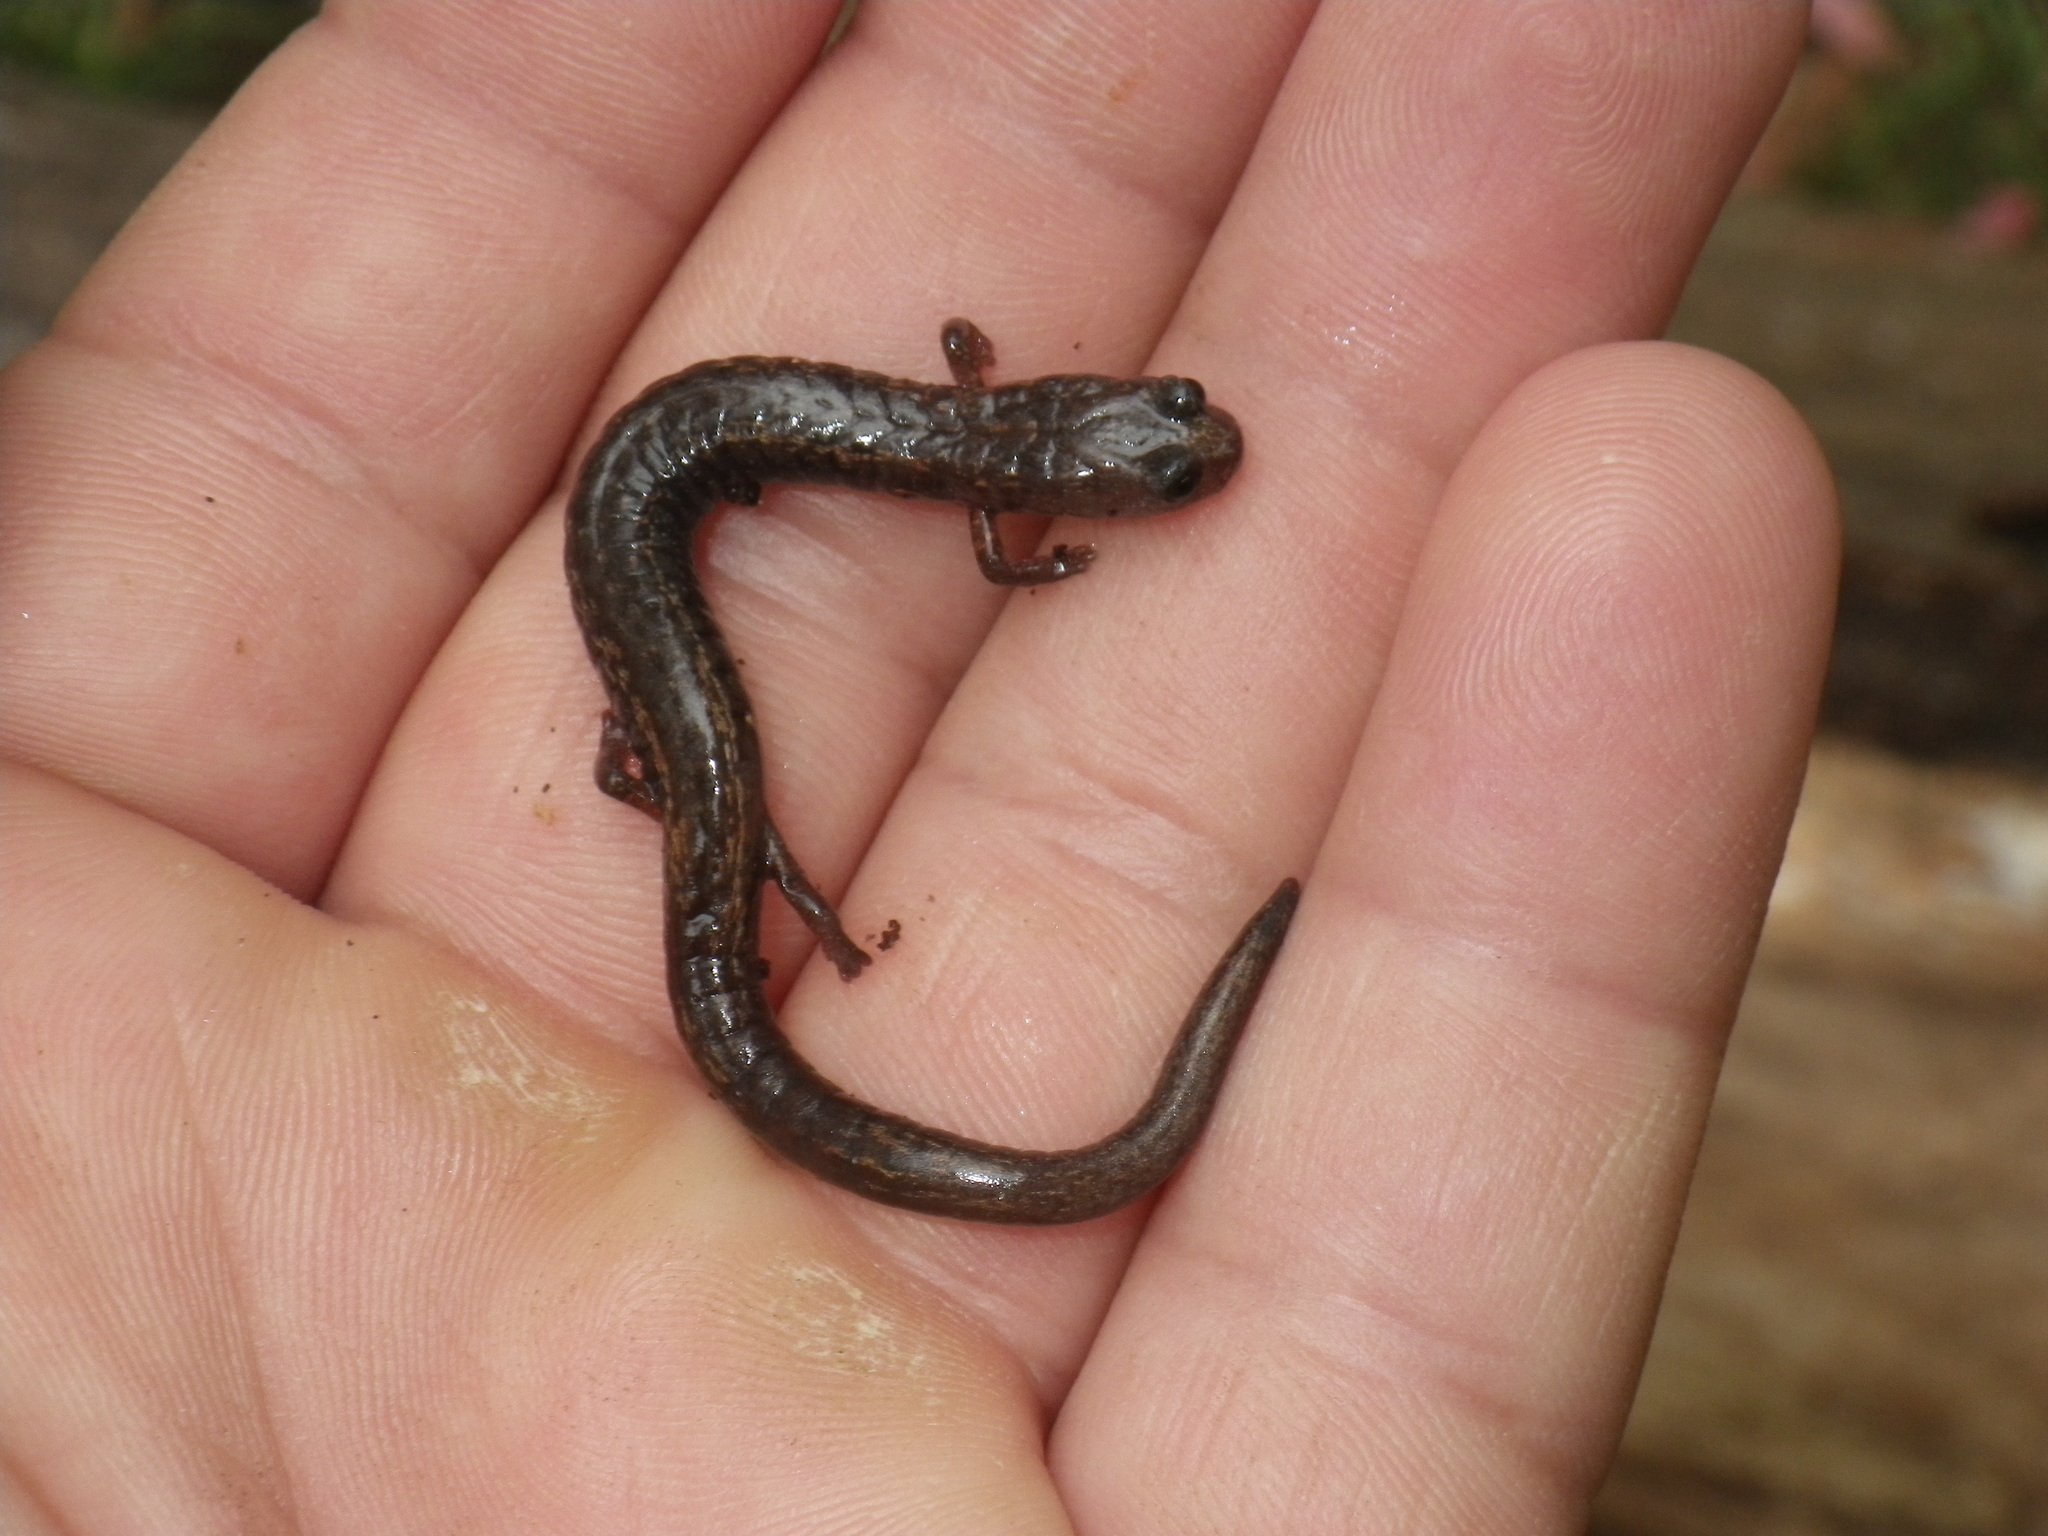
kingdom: Animalia
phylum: Chordata
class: Amphibia
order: Caudata
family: Plethodontidae
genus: Batrachoseps
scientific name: Batrachoseps attenuatus
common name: California slender salamander
